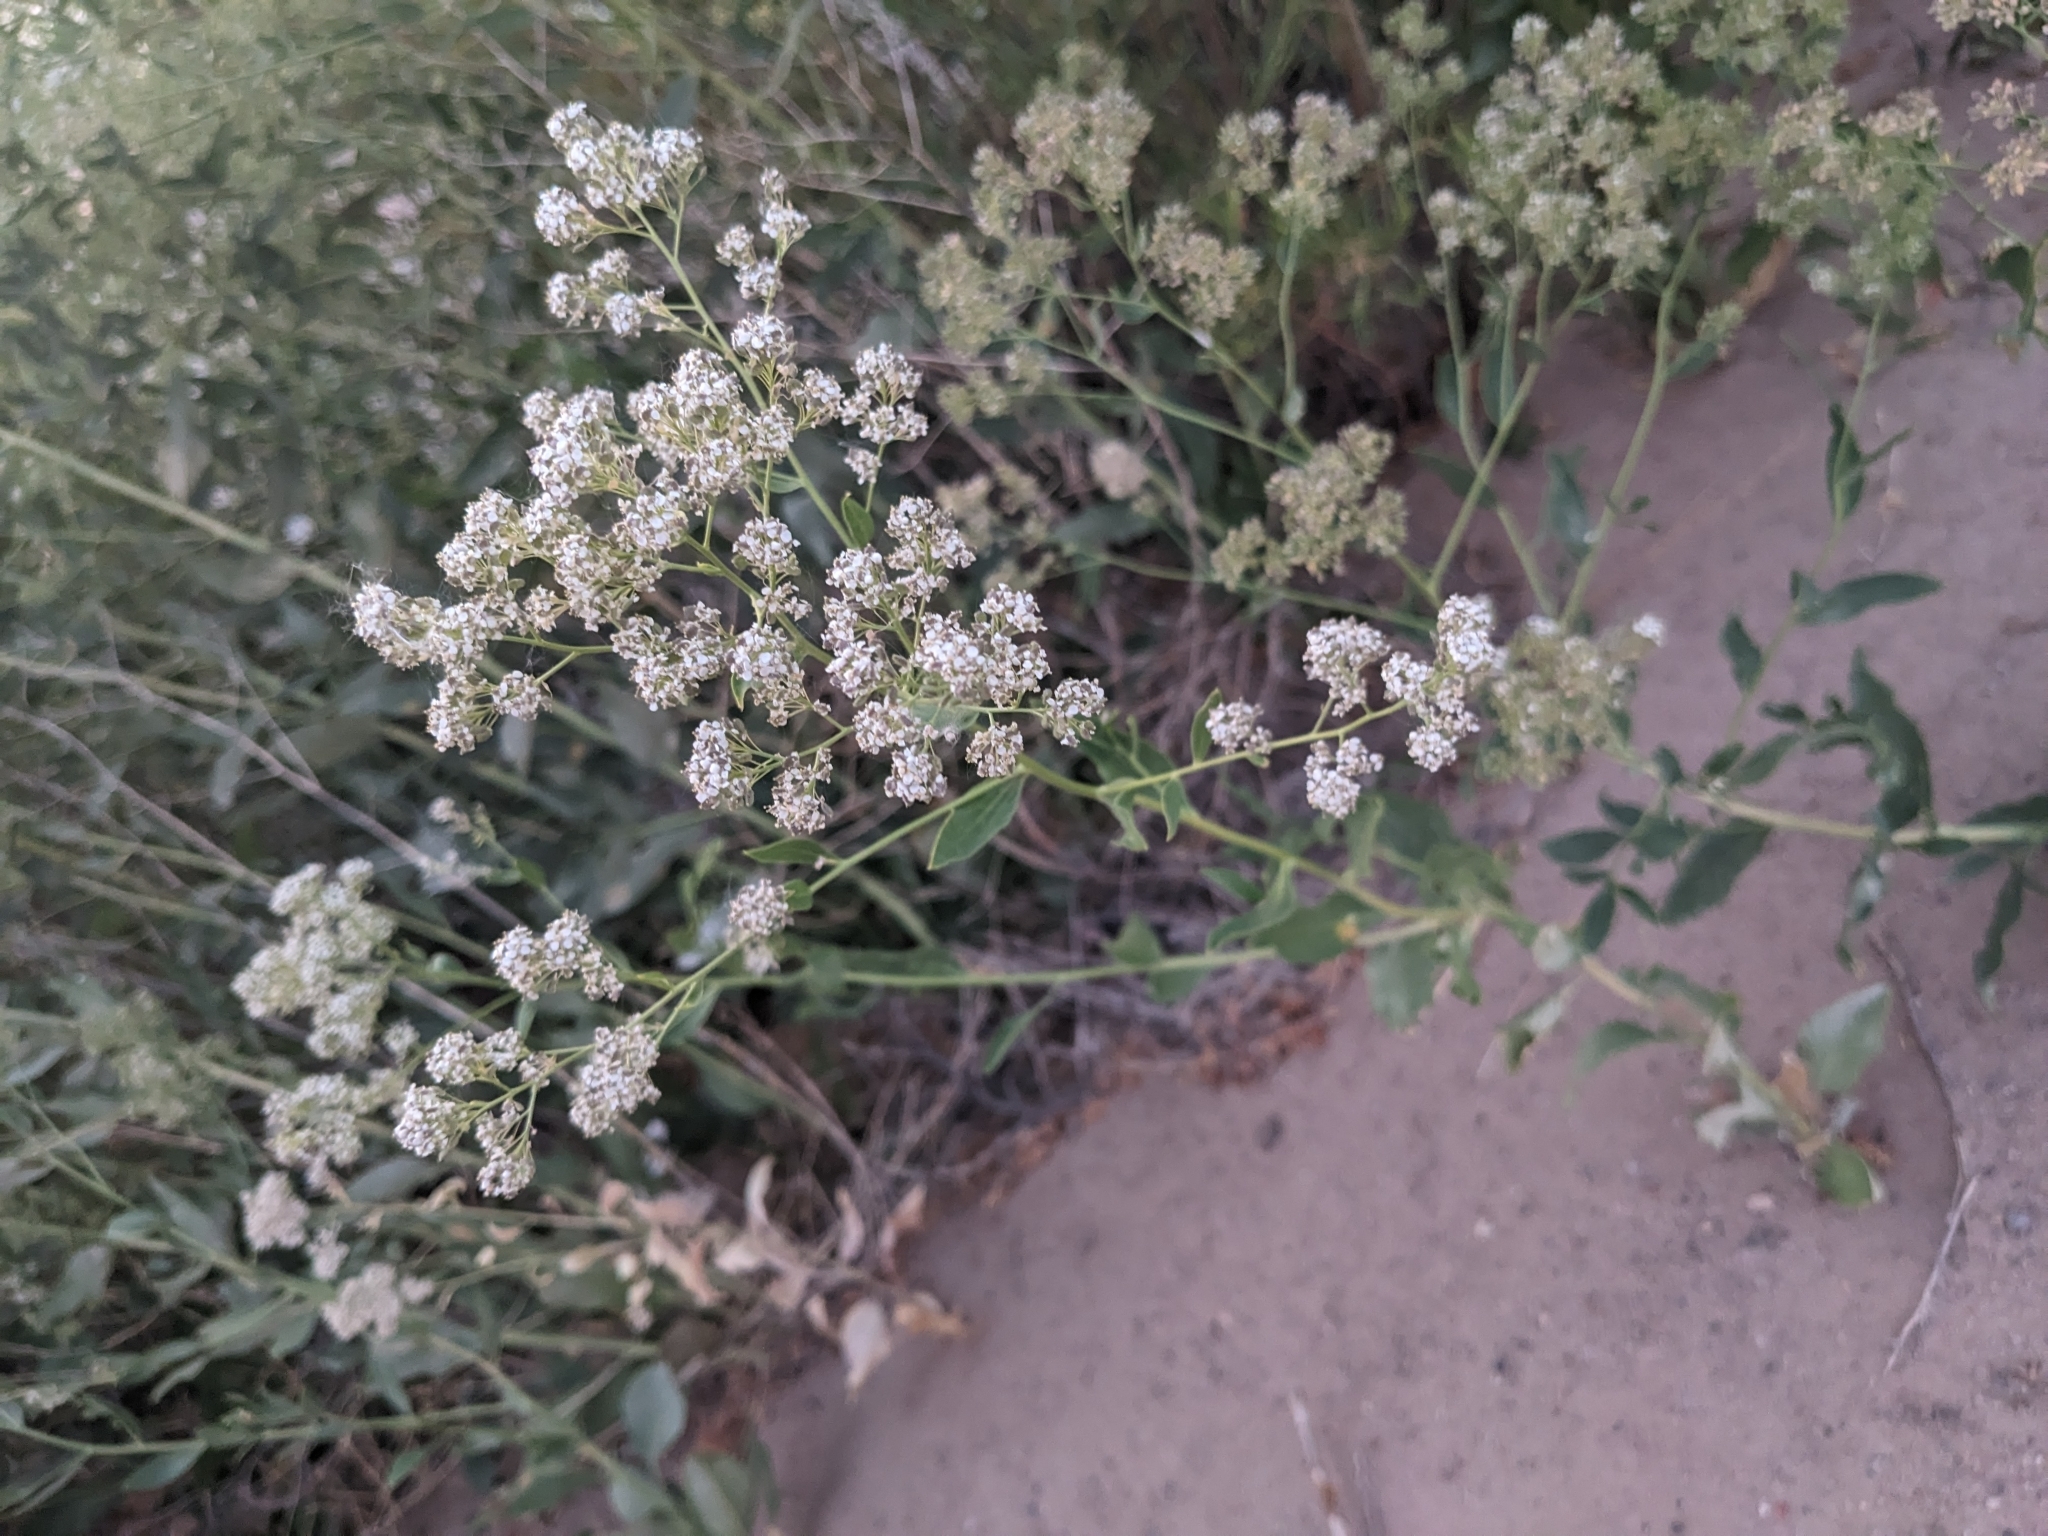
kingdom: Plantae
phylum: Tracheophyta
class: Magnoliopsida
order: Brassicales
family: Brassicaceae
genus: Lepidium
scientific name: Lepidium latifolium
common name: Dittander
